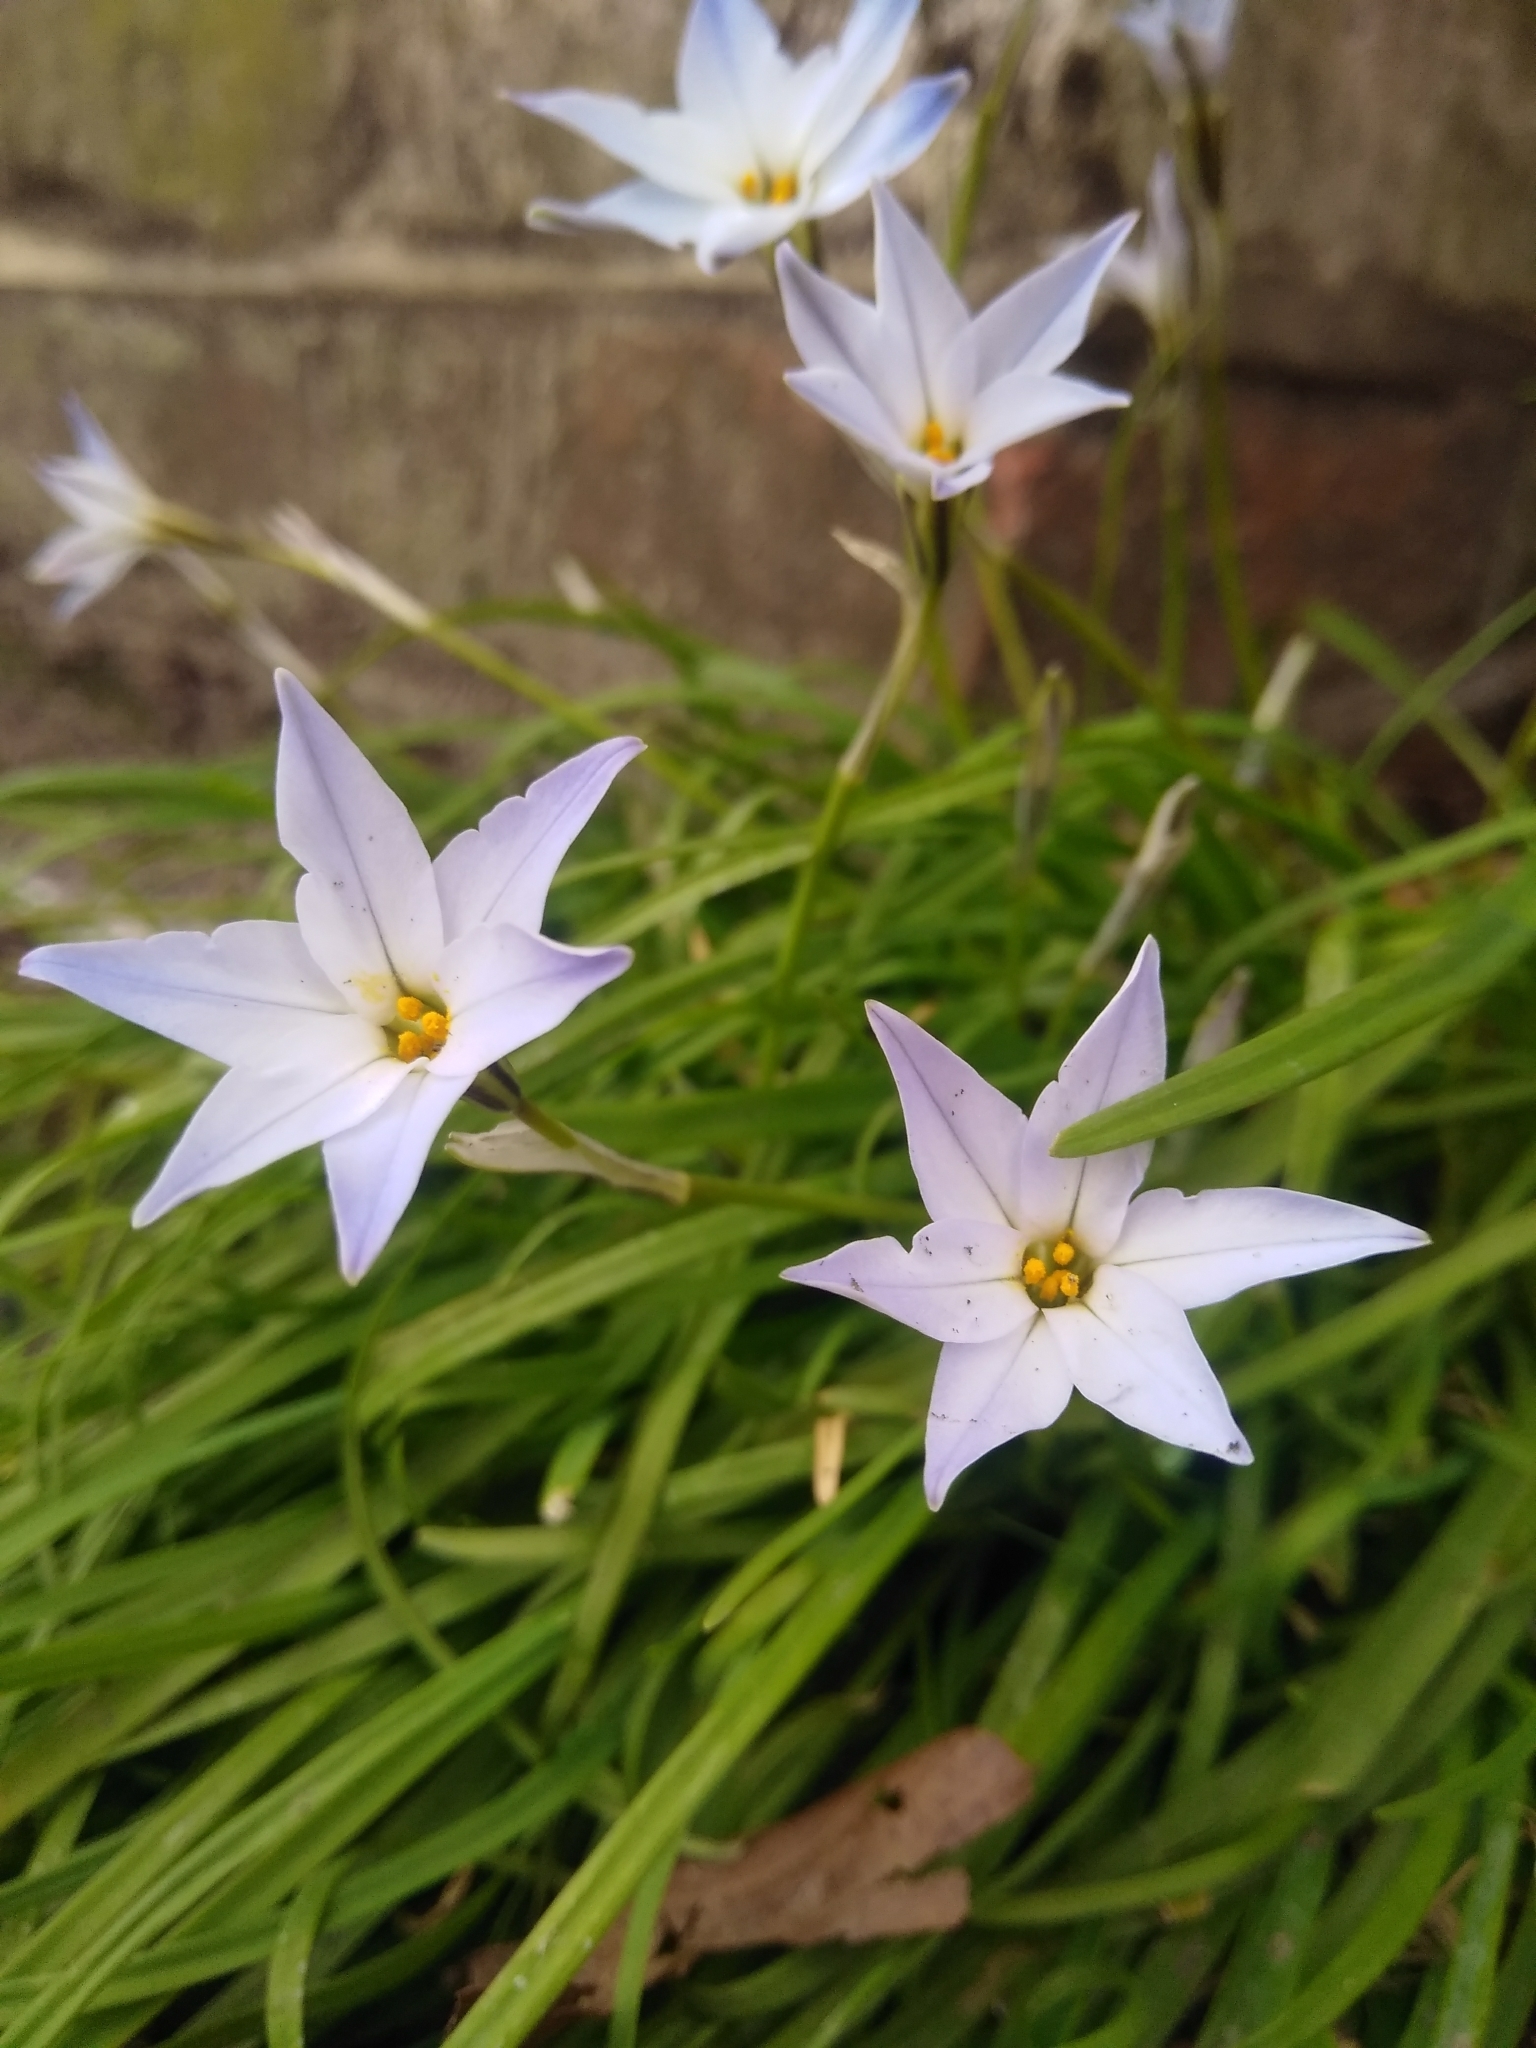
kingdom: Plantae
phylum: Tracheophyta
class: Liliopsida
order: Asparagales
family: Amaryllidaceae
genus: Ipheion
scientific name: Ipheion uniflorum
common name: Spring starflower
